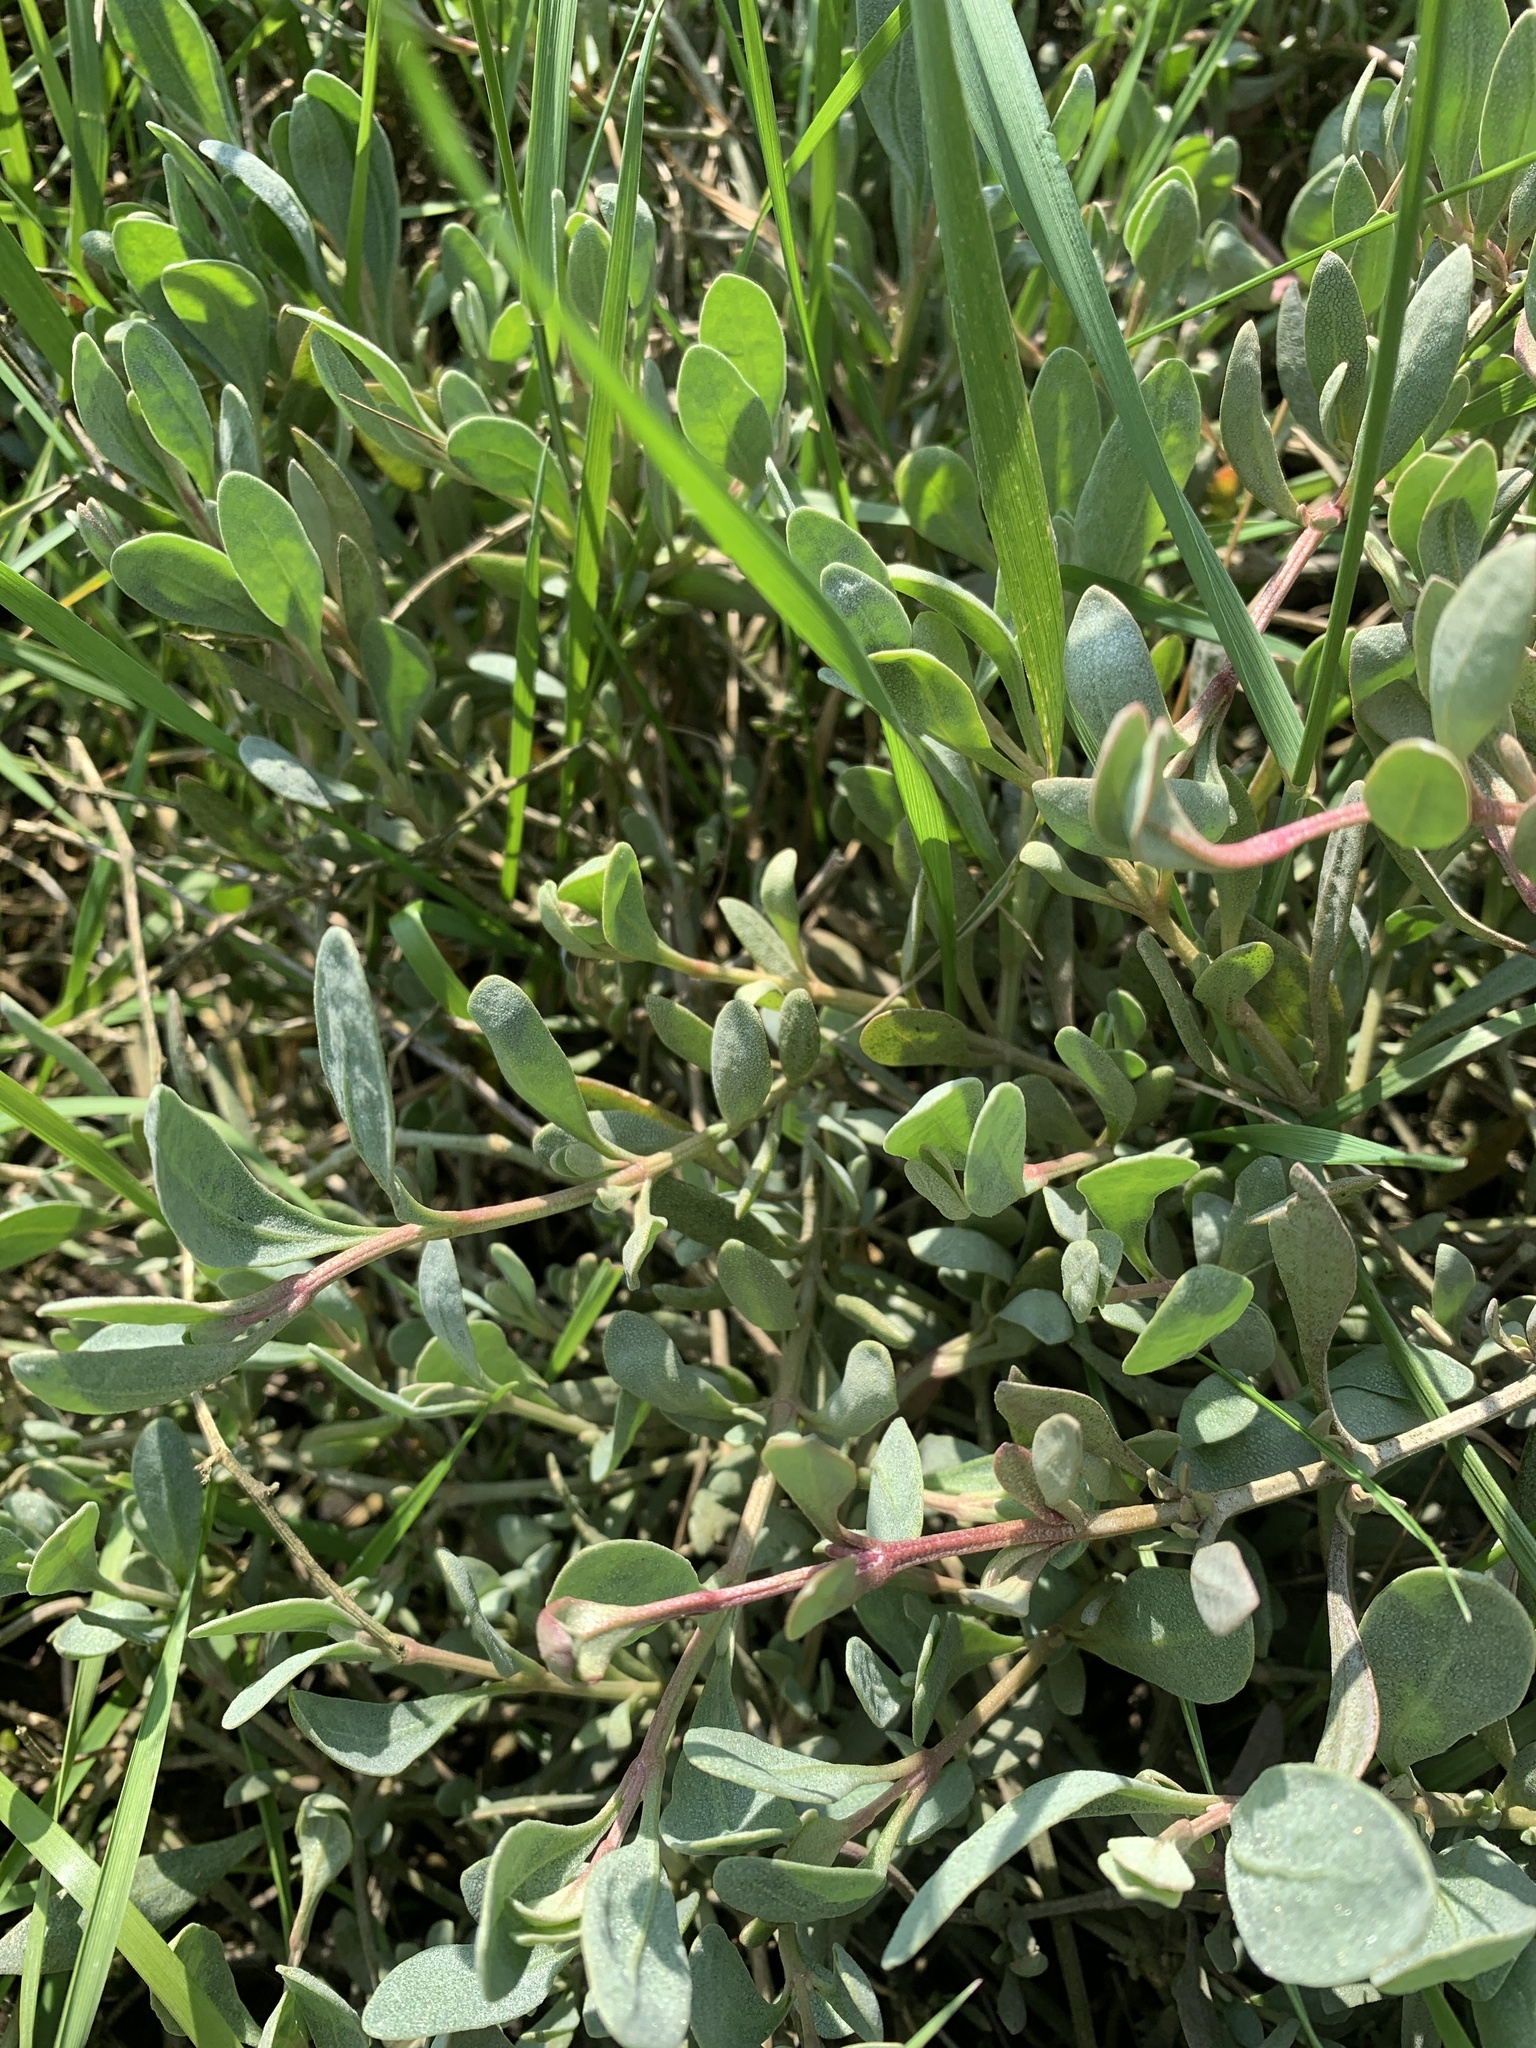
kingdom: Plantae
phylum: Tracheophyta
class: Magnoliopsida
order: Caryophyllales
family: Amaranthaceae
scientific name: Amaranthaceae
